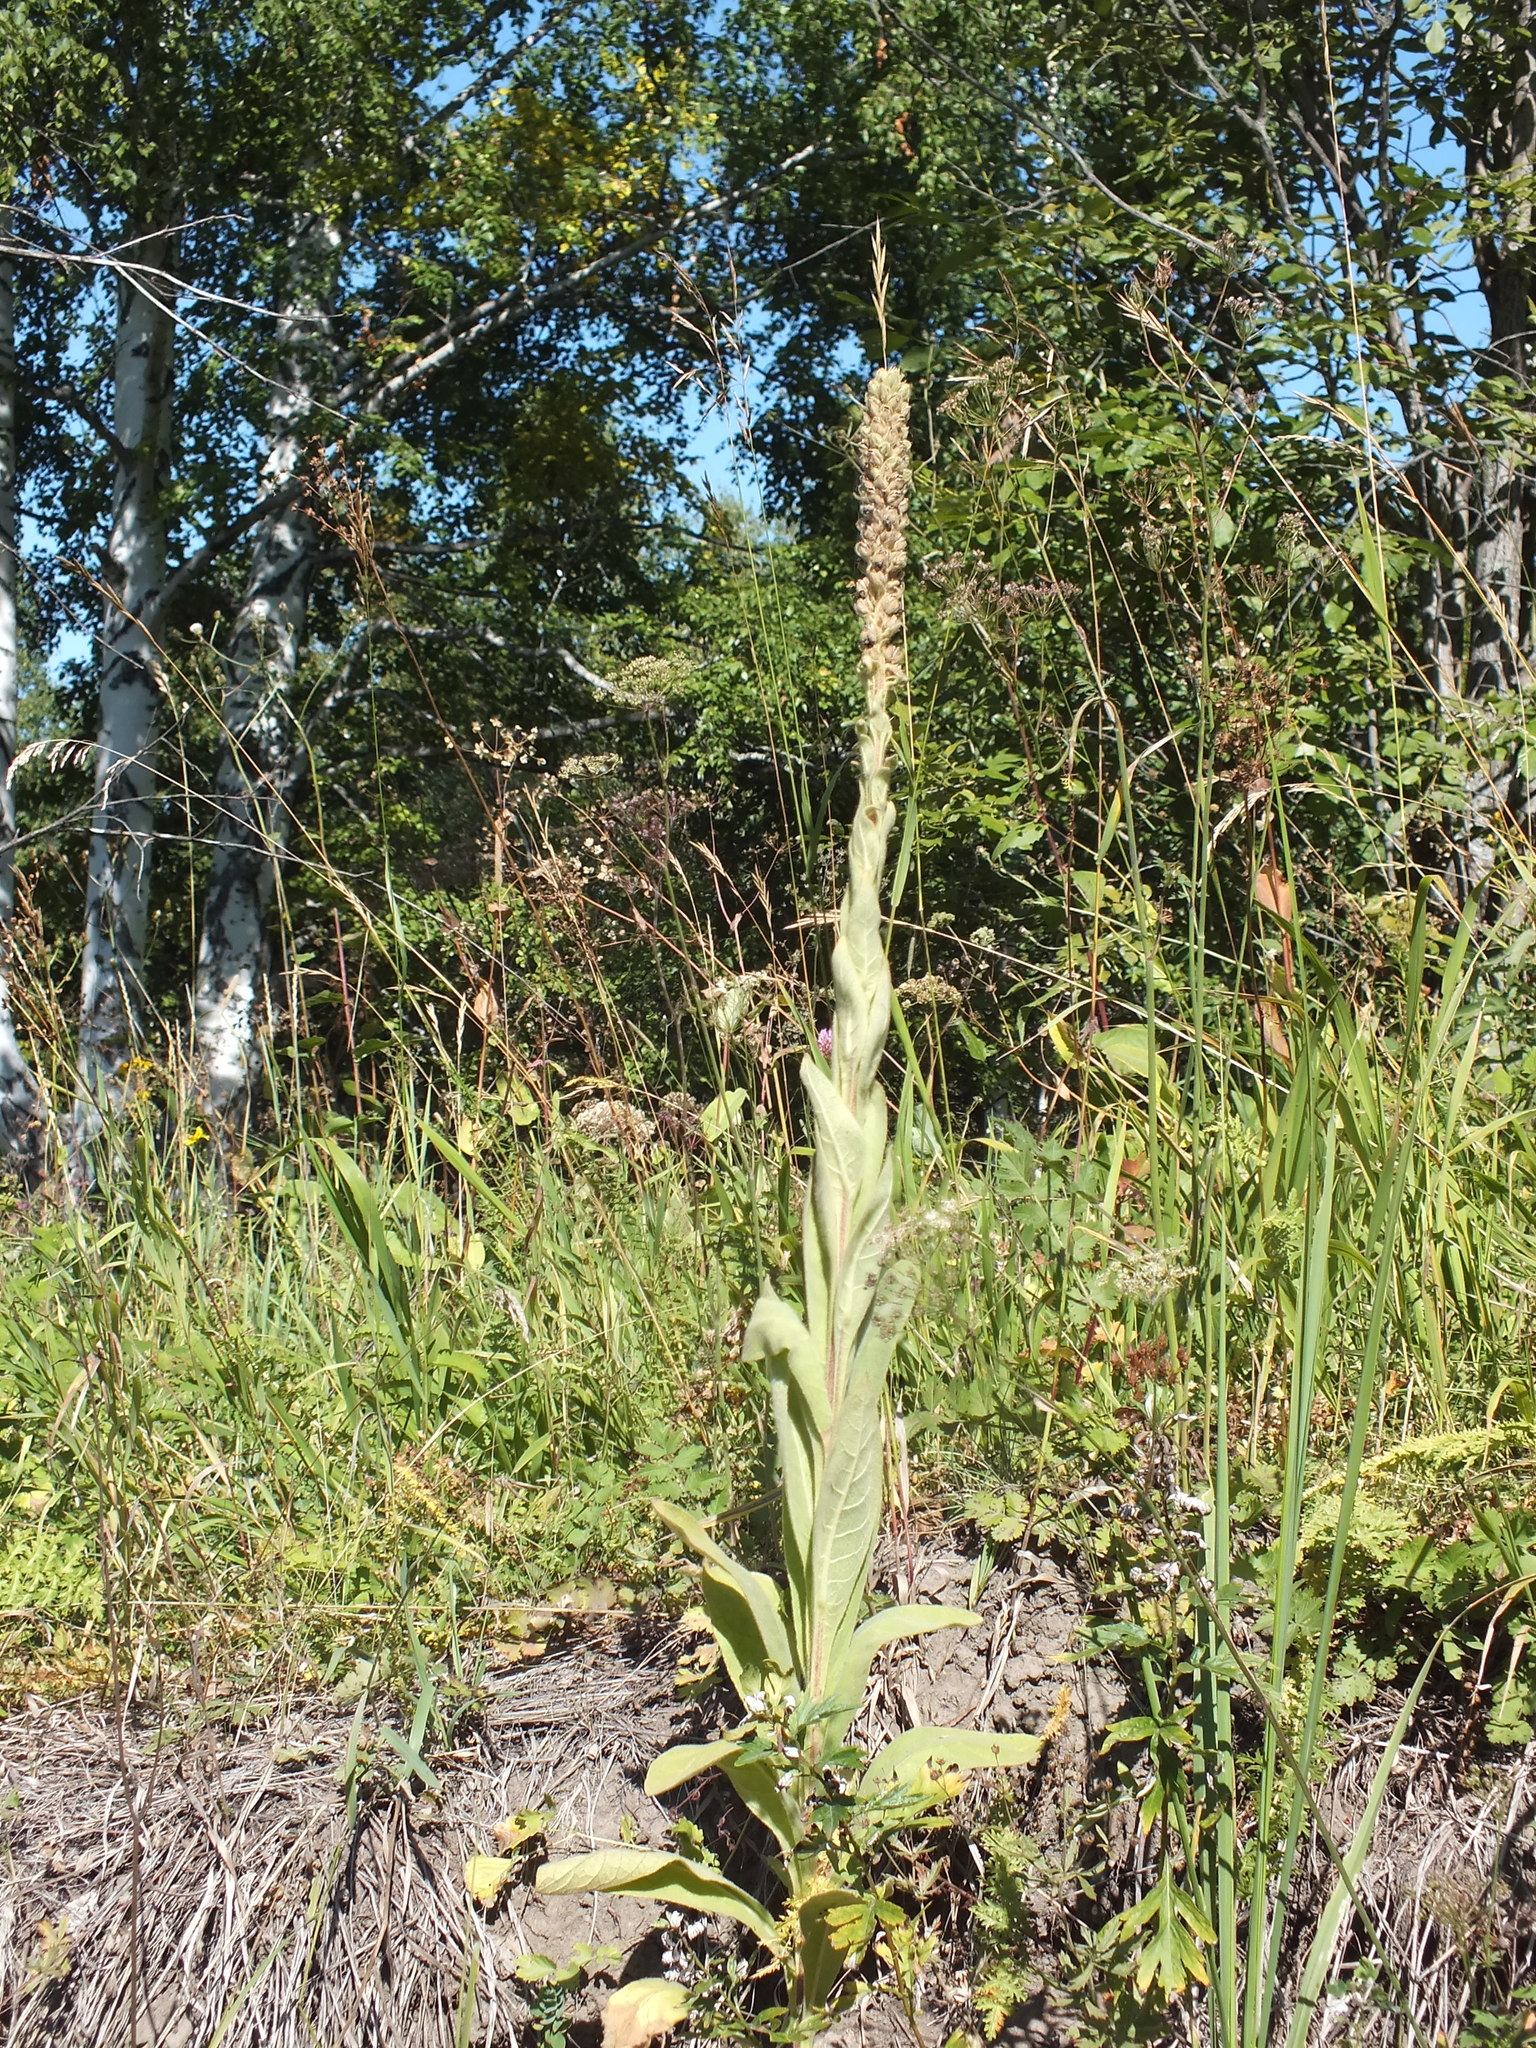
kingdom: Plantae
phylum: Tracheophyta
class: Magnoliopsida
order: Lamiales
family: Scrophulariaceae
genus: Verbascum
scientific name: Verbascum thapsus
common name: Common mullein
